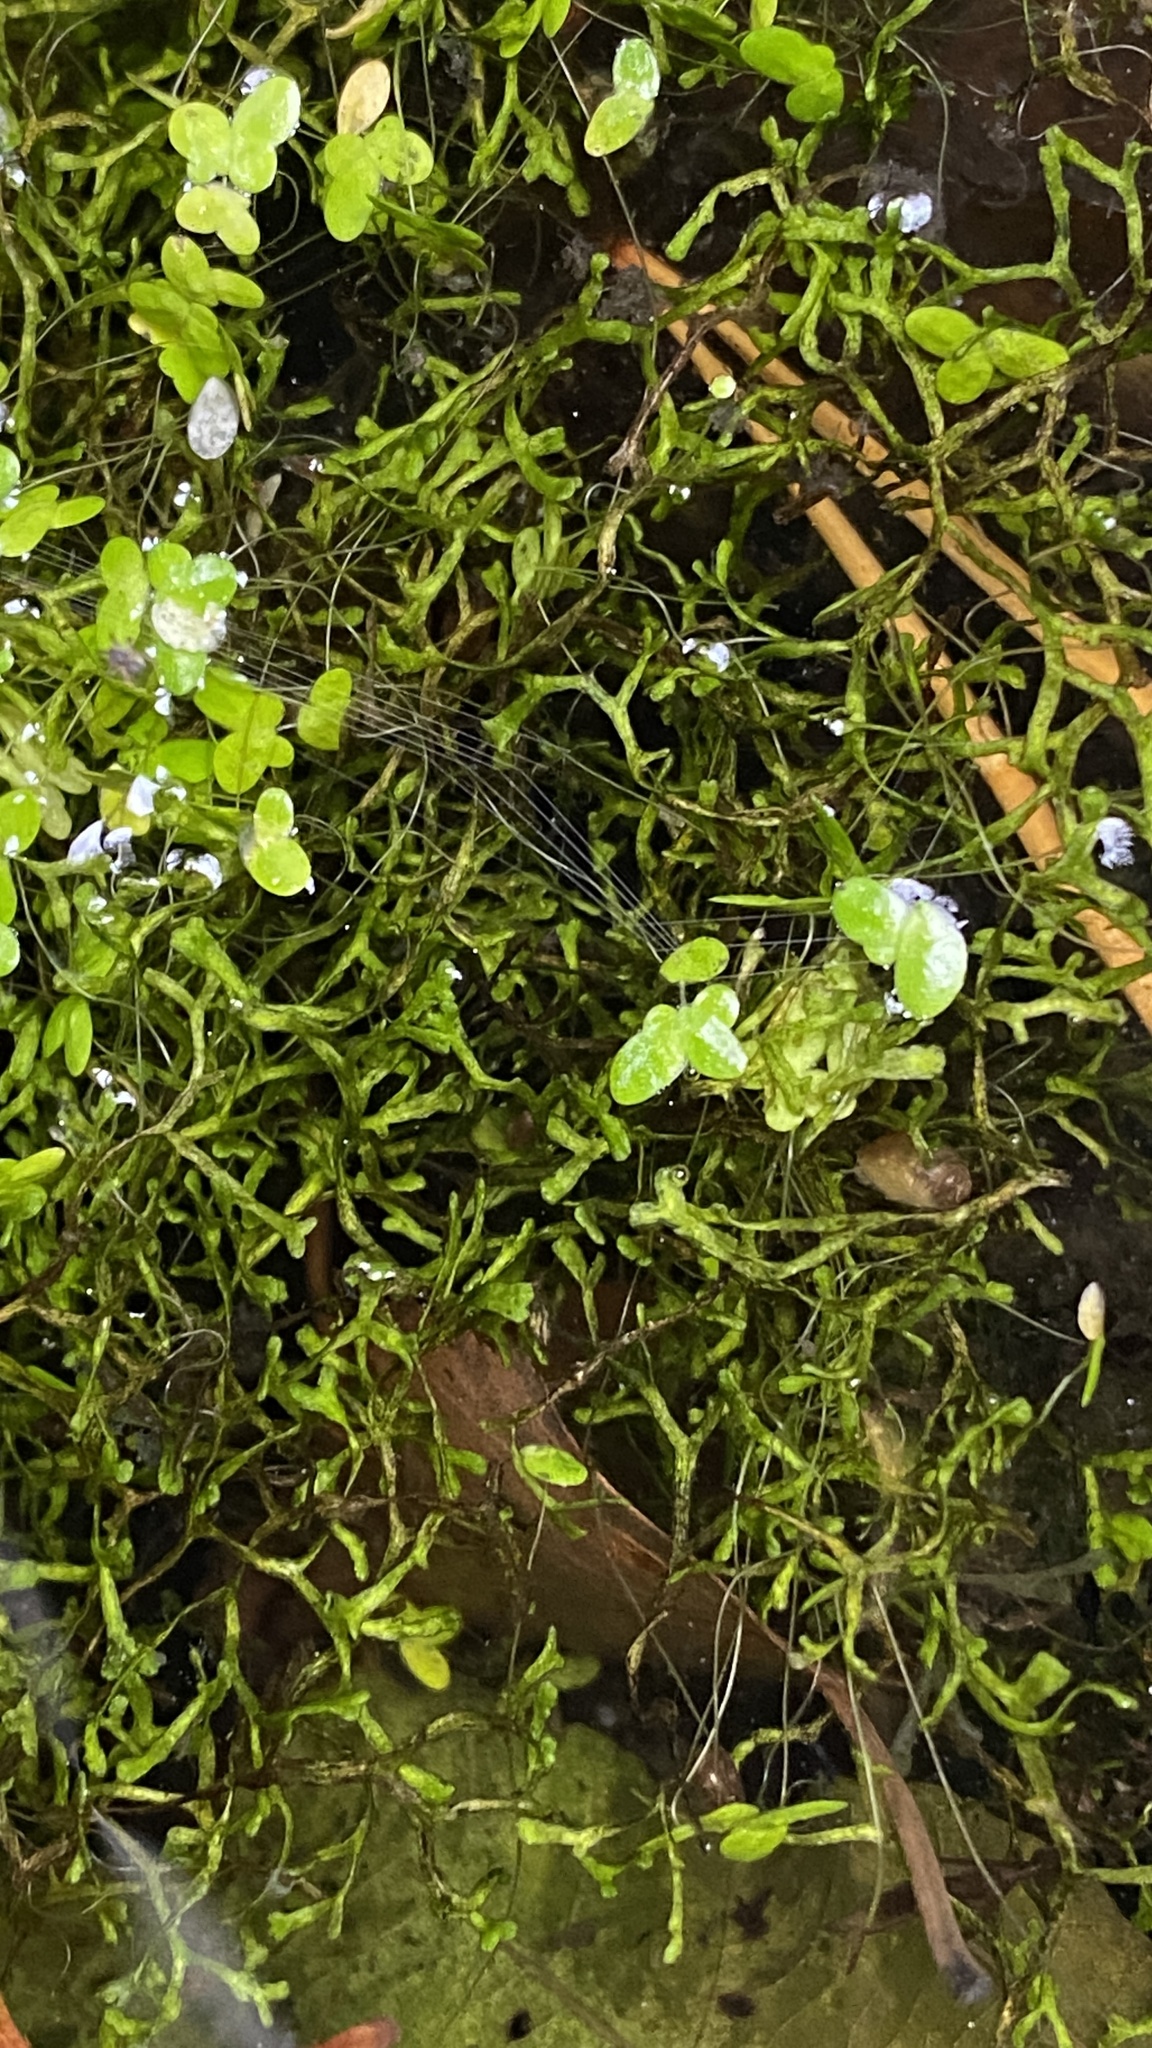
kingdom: Plantae
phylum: Marchantiophyta
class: Marchantiopsida
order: Marchantiales
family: Ricciaceae
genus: Riccia
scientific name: Riccia fluitans
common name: Floating crystalwort
